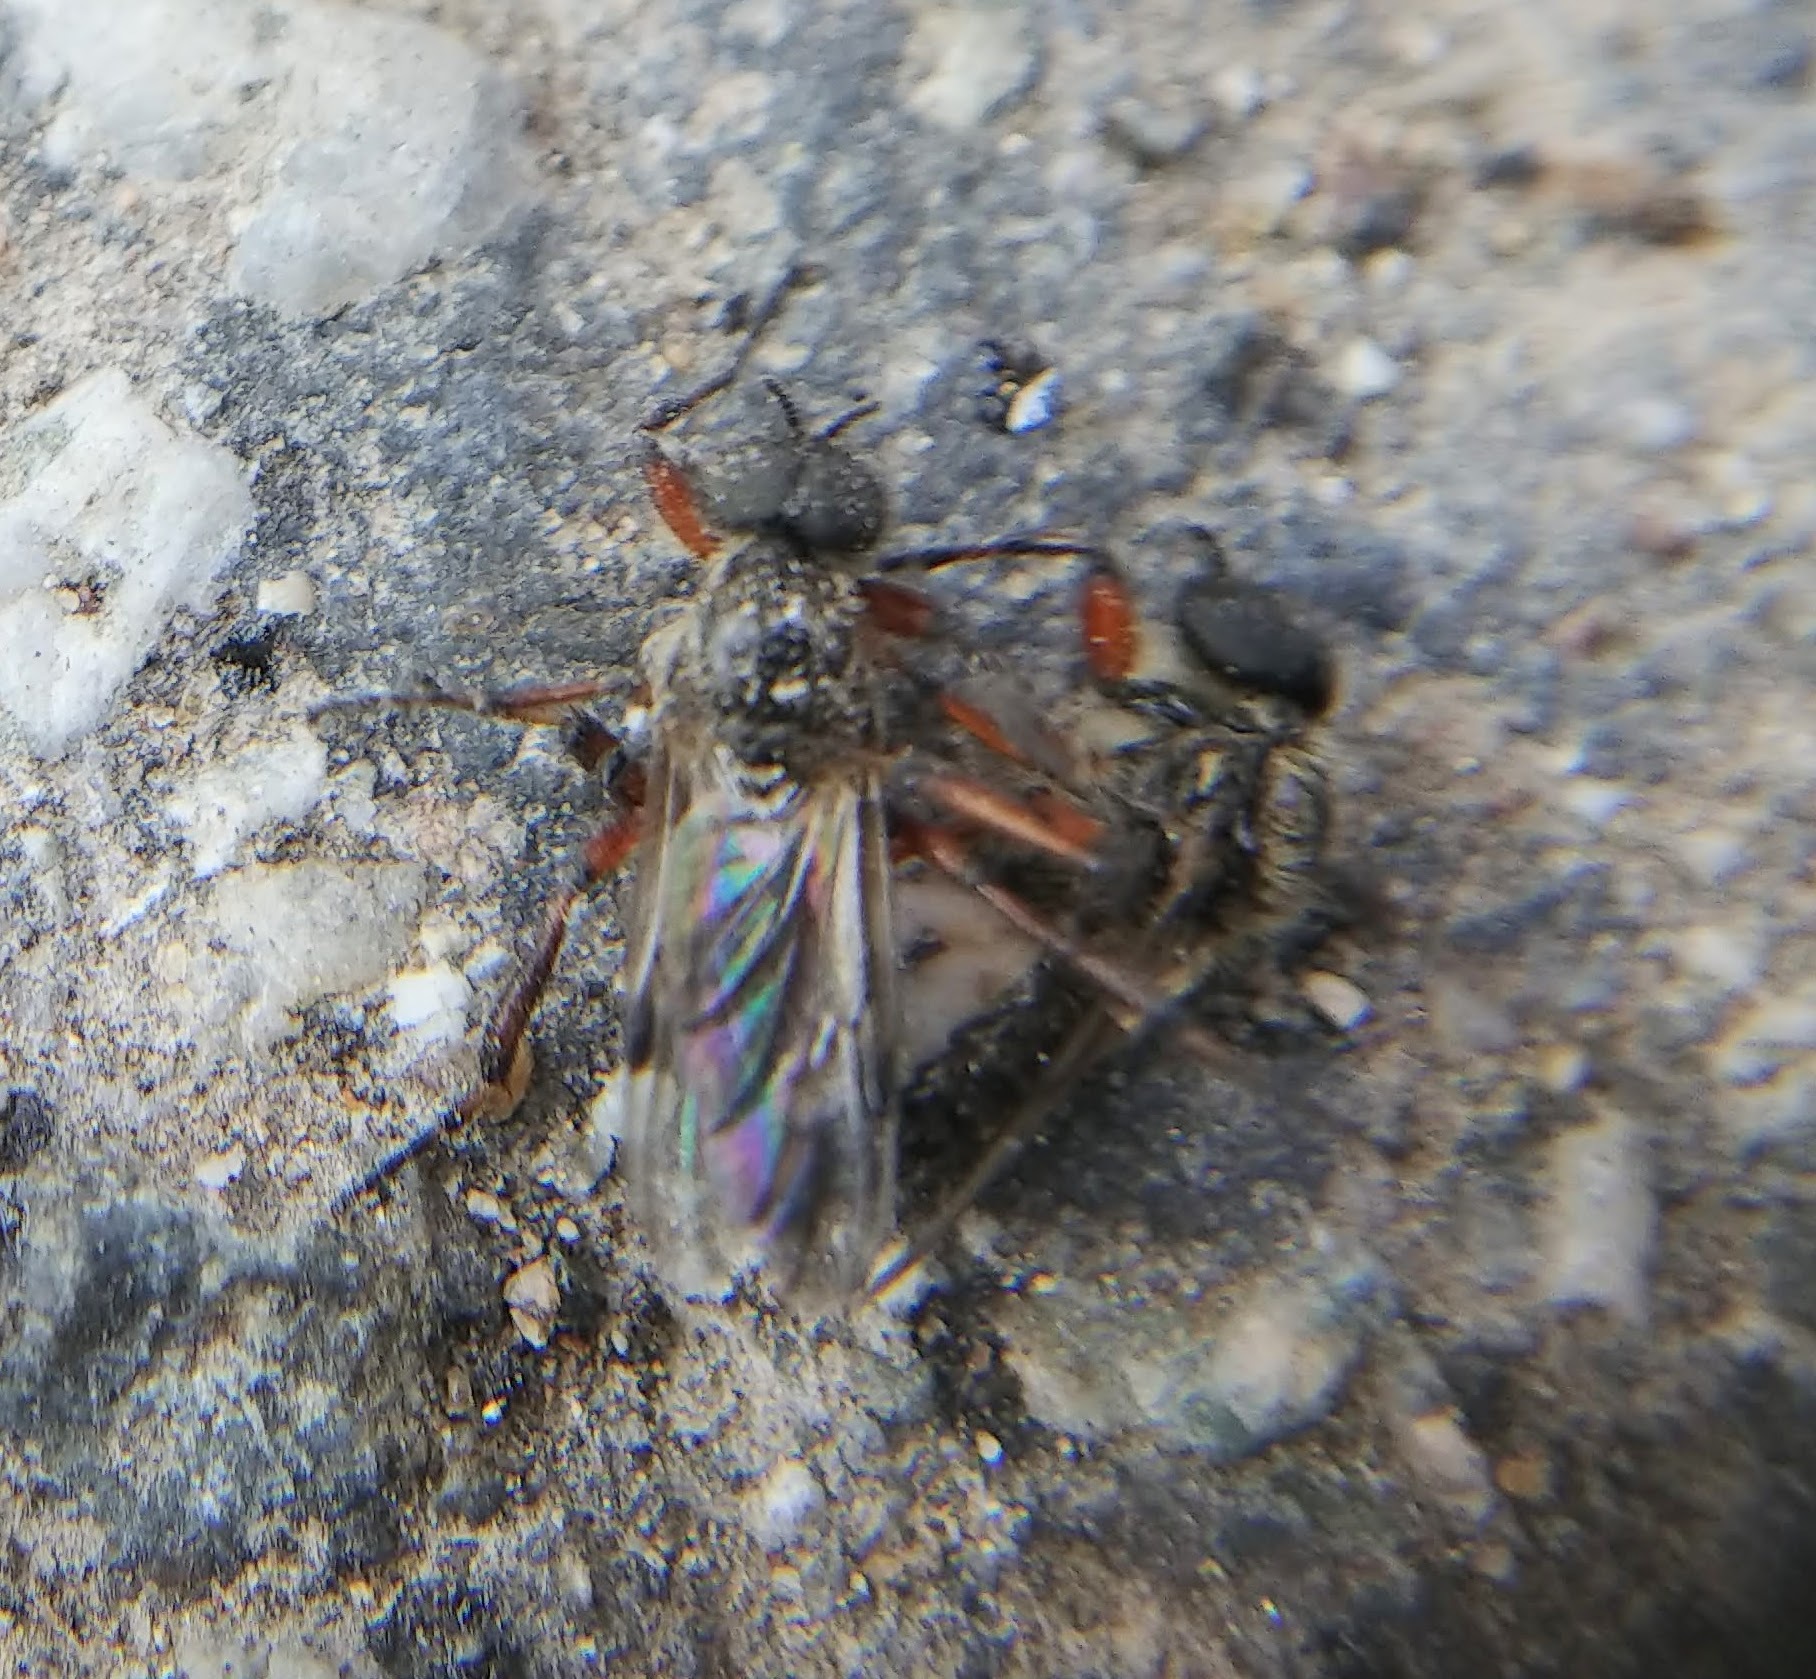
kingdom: Animalia
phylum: Arthropoda
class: Insecta
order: Diptera
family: Bibionidae
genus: Bibio
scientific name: Bibio
